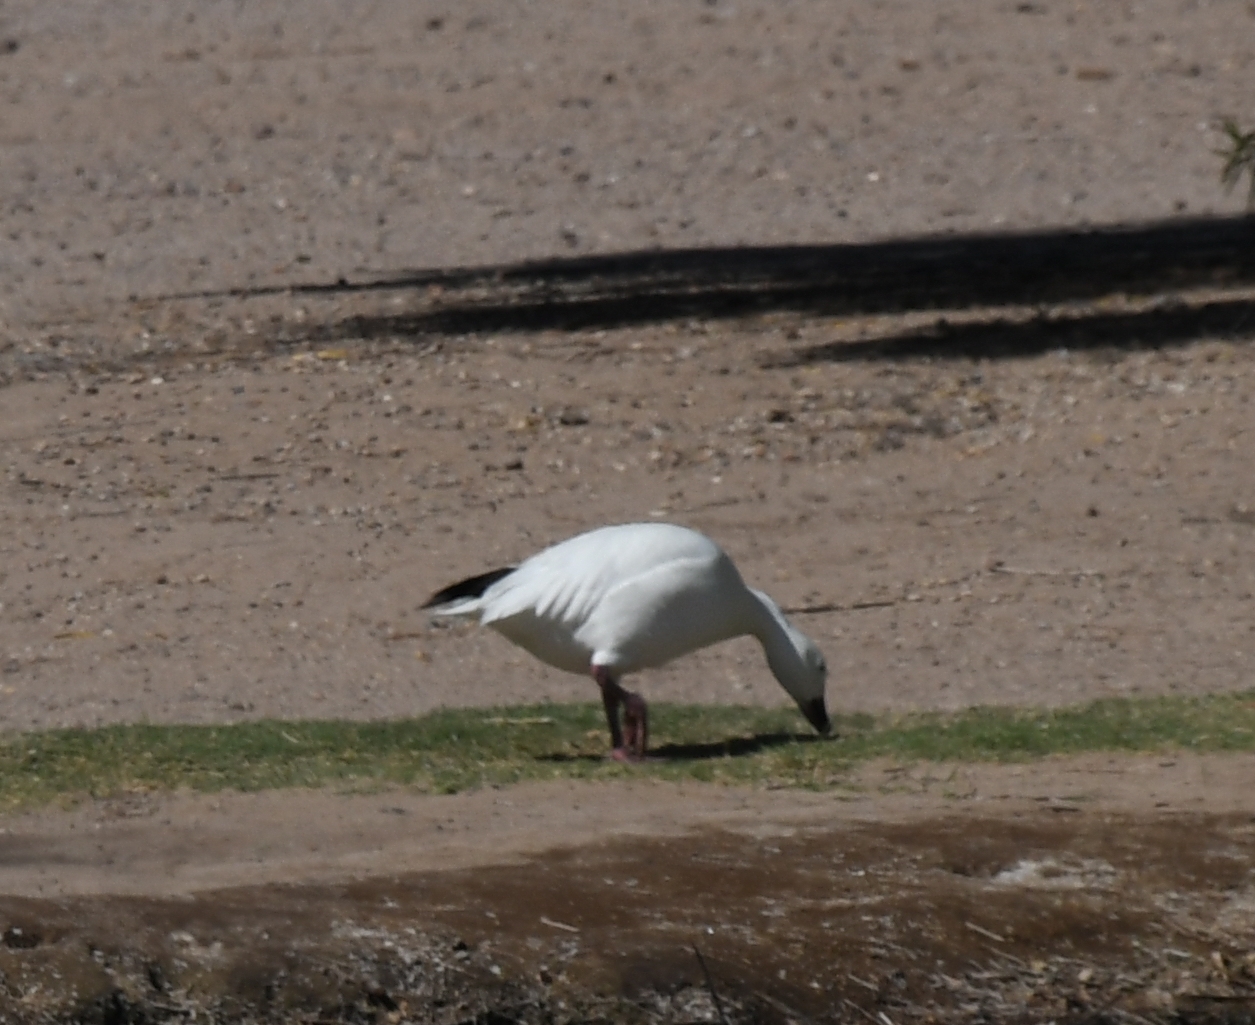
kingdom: Animalia
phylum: Chordata
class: Aves
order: Anseriformes
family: Anatidae
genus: Anser
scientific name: Anser caerulescens
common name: Snow goose
